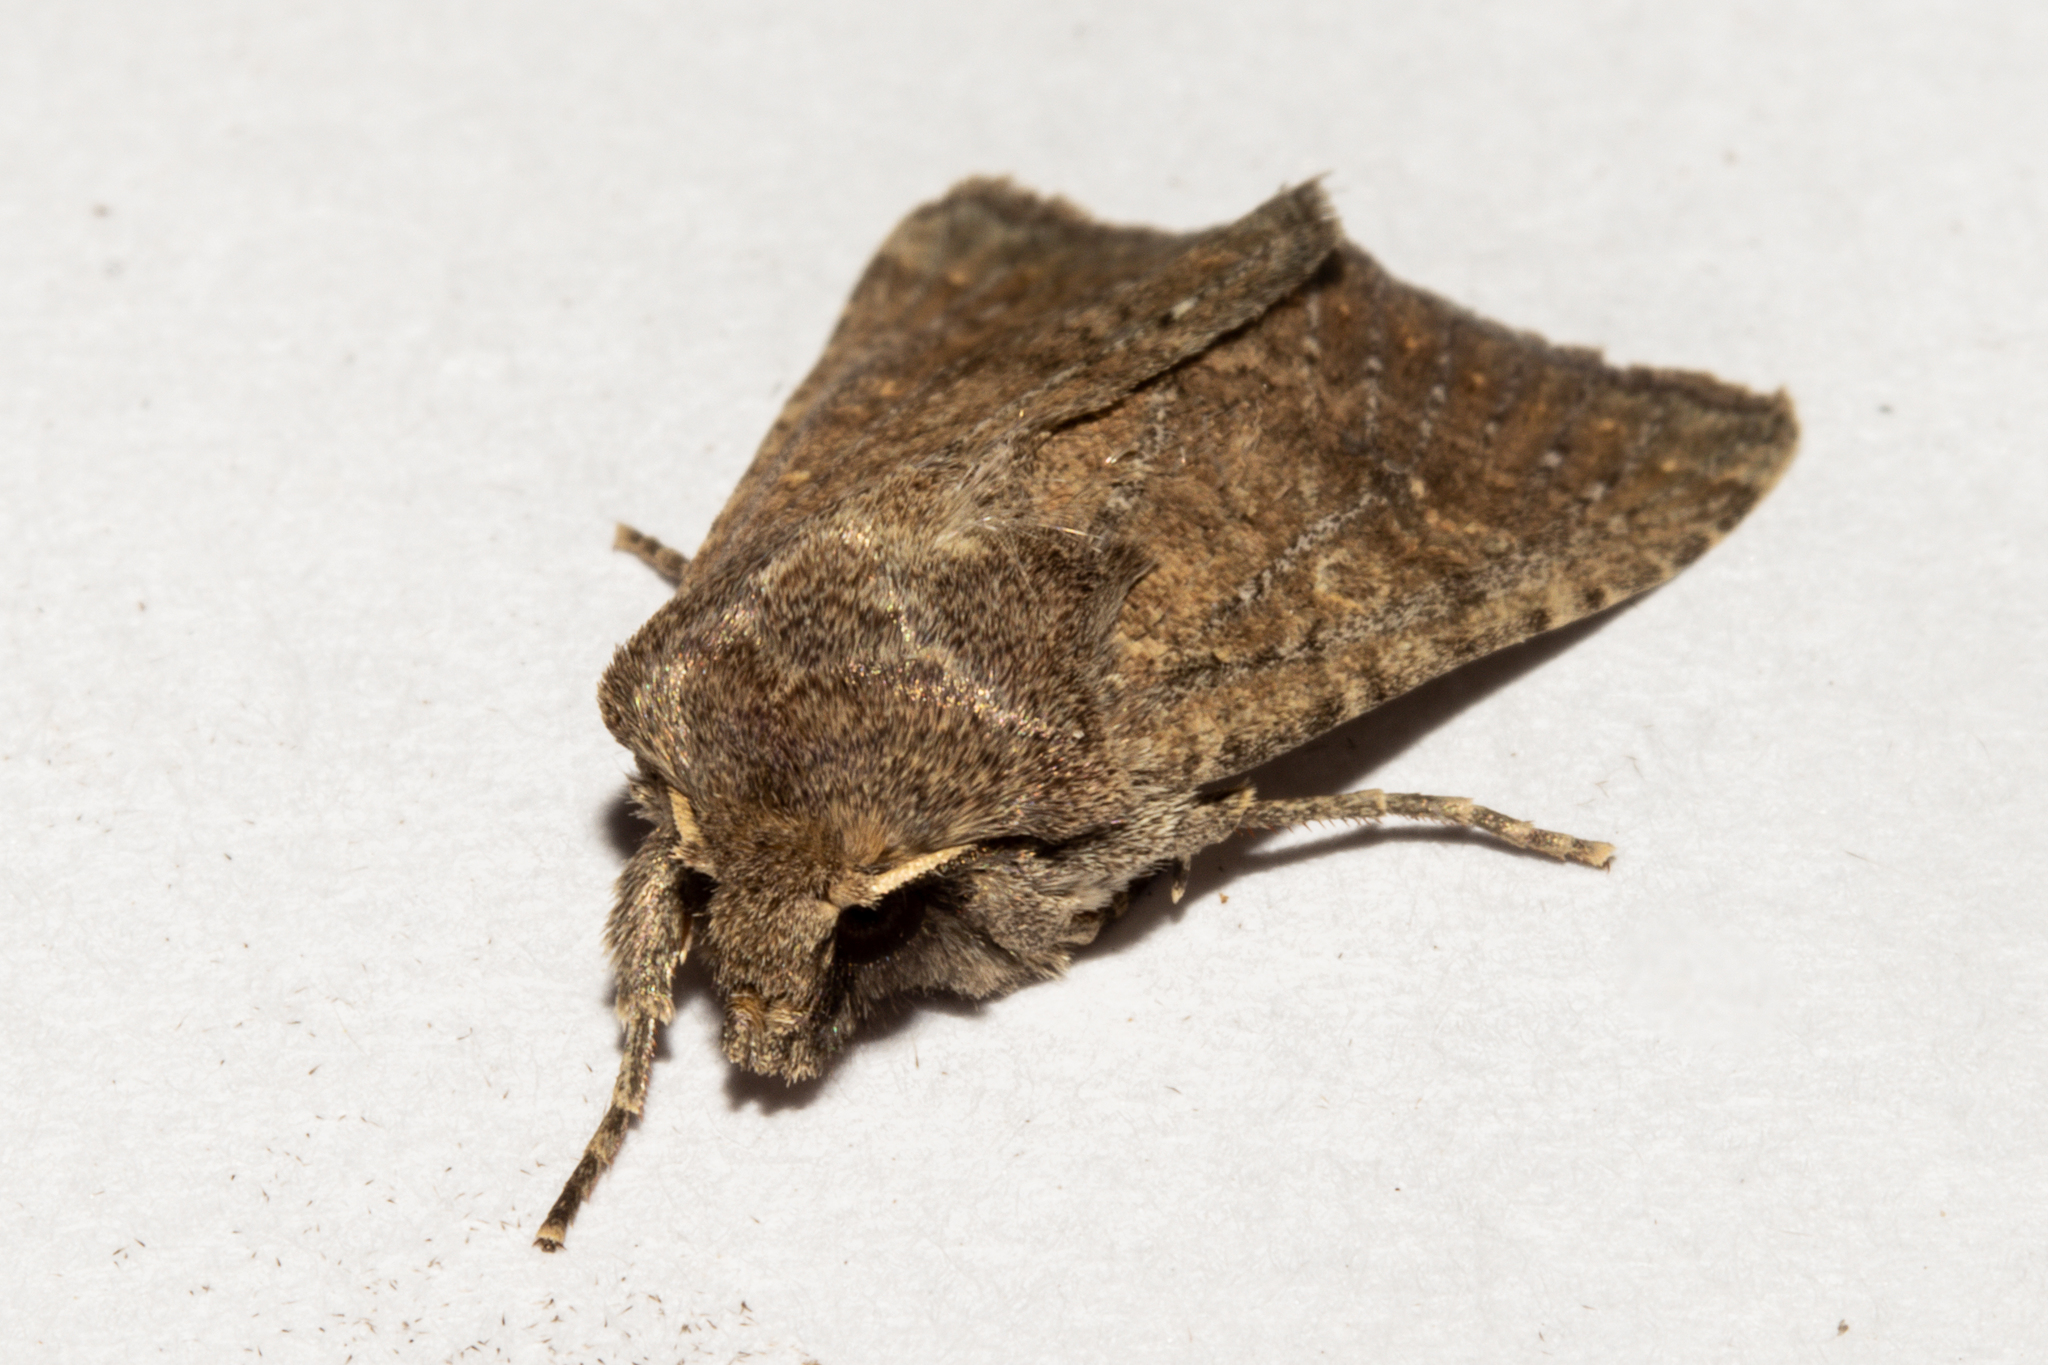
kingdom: Animalia
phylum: Arthropoda
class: Insecta
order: Lepidoptera
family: Noctuidae
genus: Physetica
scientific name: Physetica
